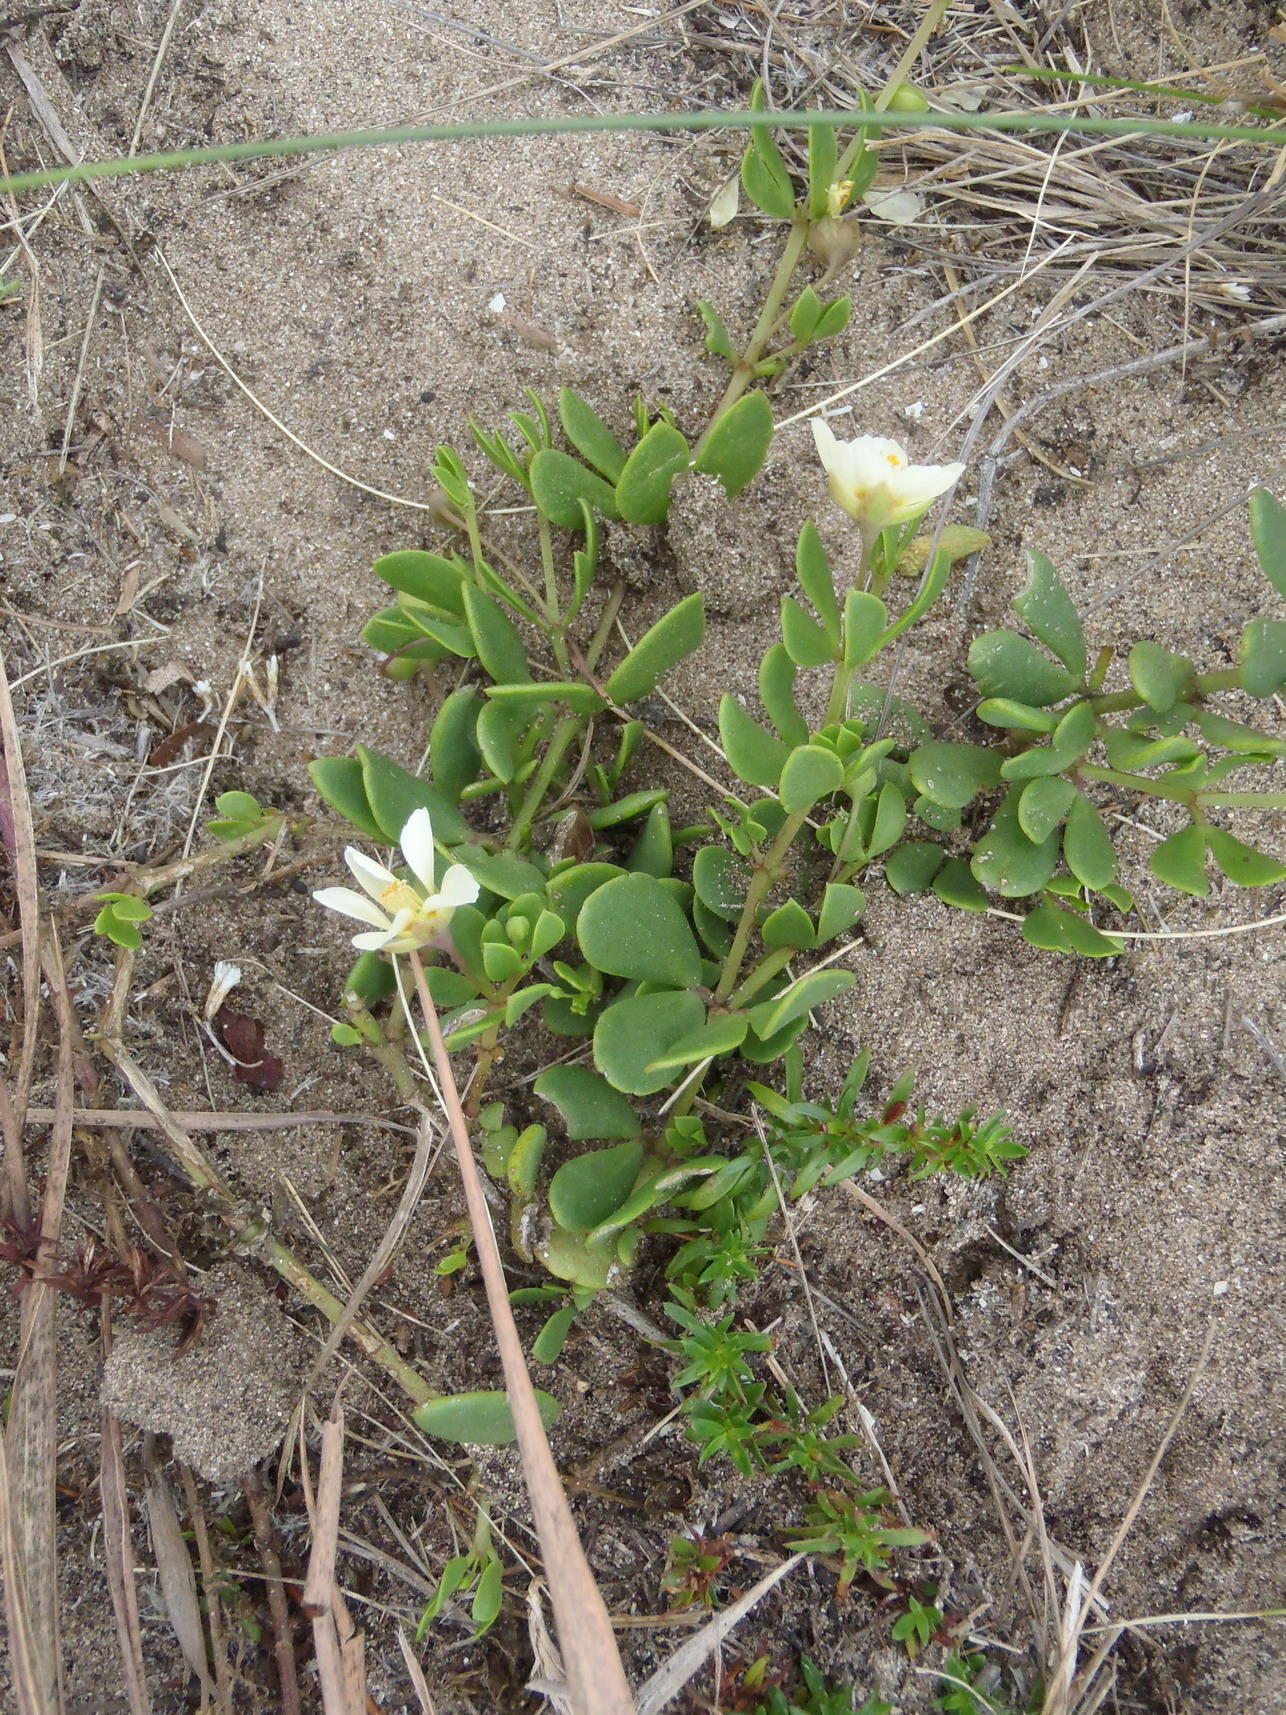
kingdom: Plantae
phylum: Tracheophyta
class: Magnoliopsida
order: Zygophyllales
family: Zygophyllaceae
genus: Roepera
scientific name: Roepera maritima
